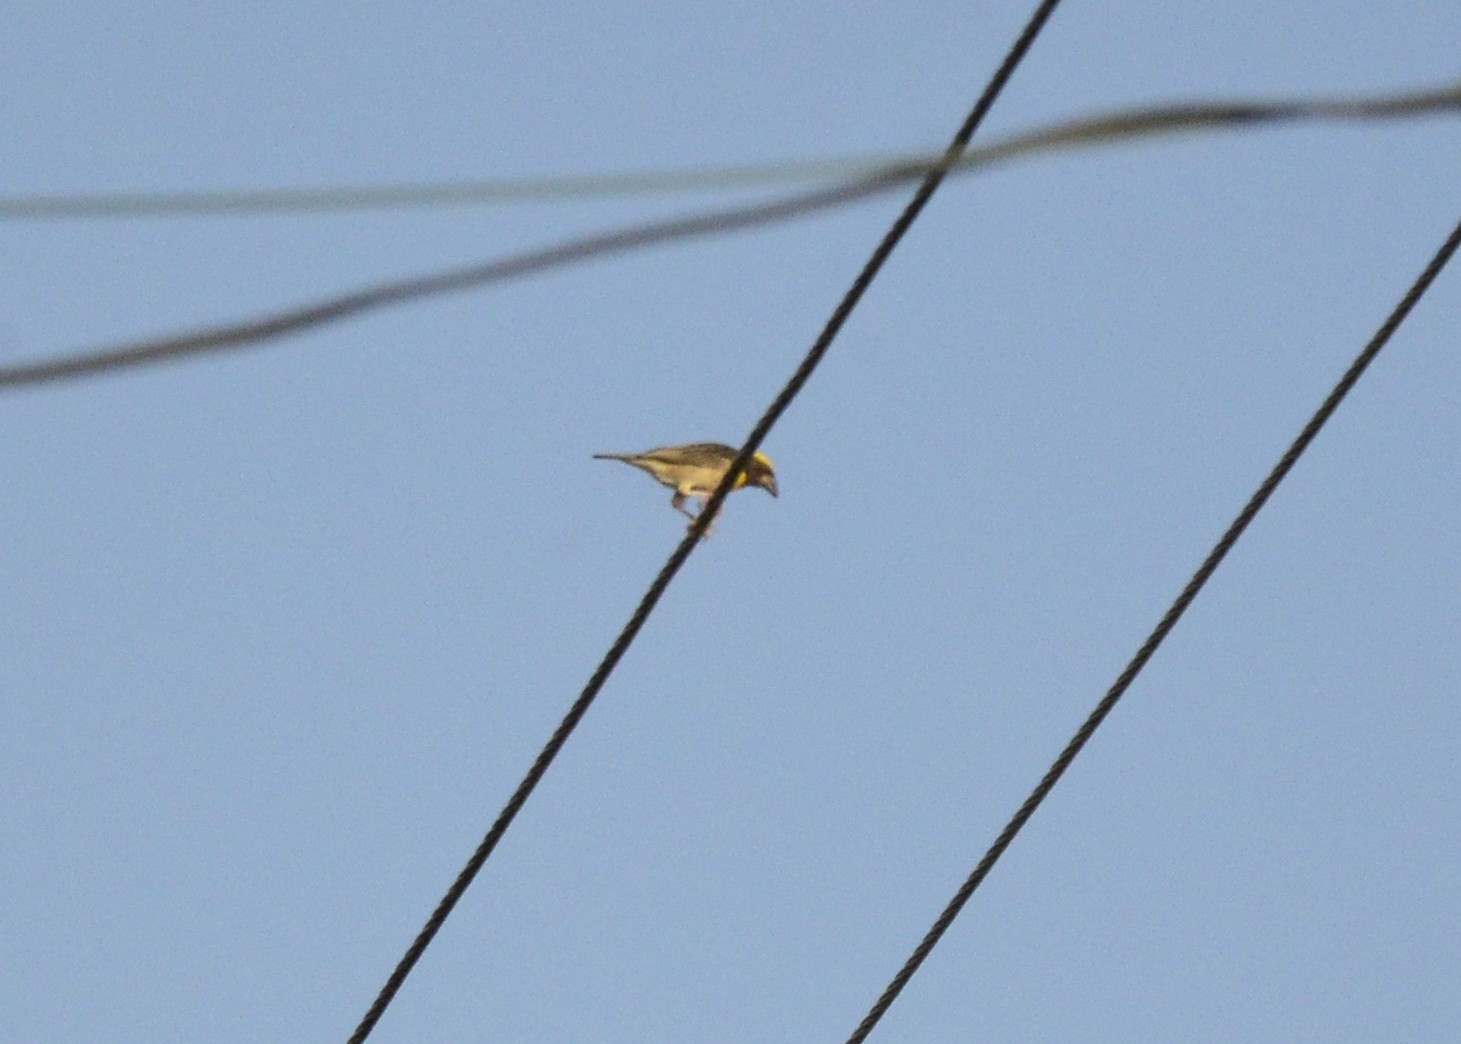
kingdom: Animalia
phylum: Chordata
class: Aves
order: Passeriformes
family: Ploceidae
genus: Ploceus
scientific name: Ploceus philippinus
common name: Baya weaver
